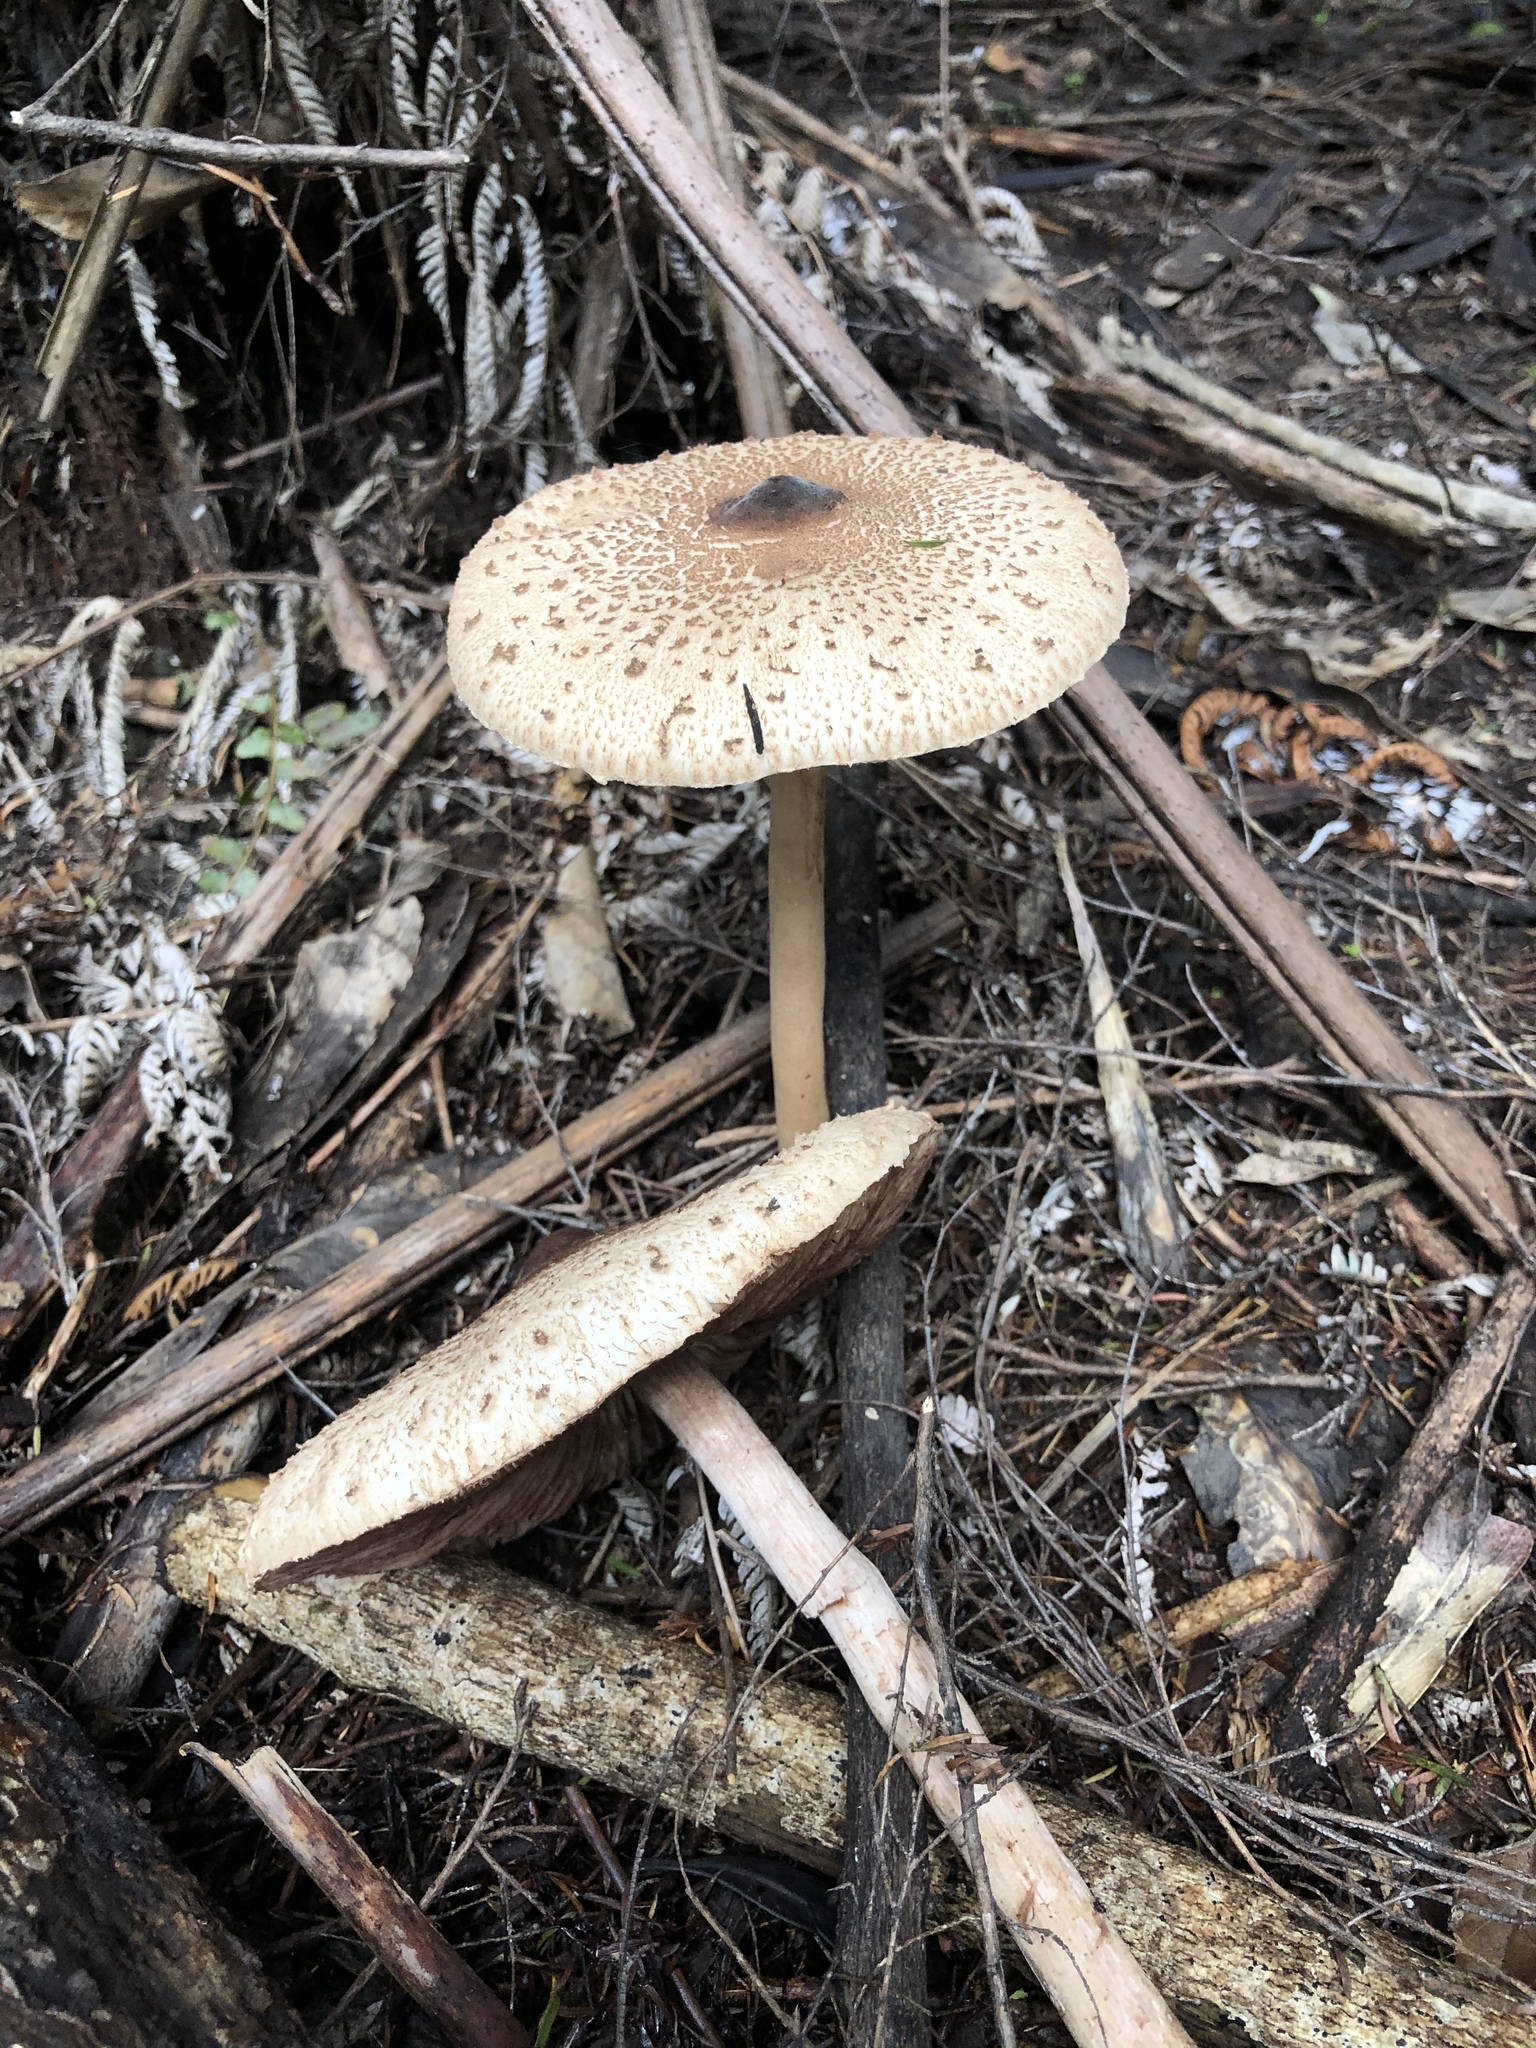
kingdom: Fungi
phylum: Basidiomycota
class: Agaricomycetes
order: Agaricales
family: Agaricaceae
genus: Macrolepiota
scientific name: Macrolepiota clelandii
